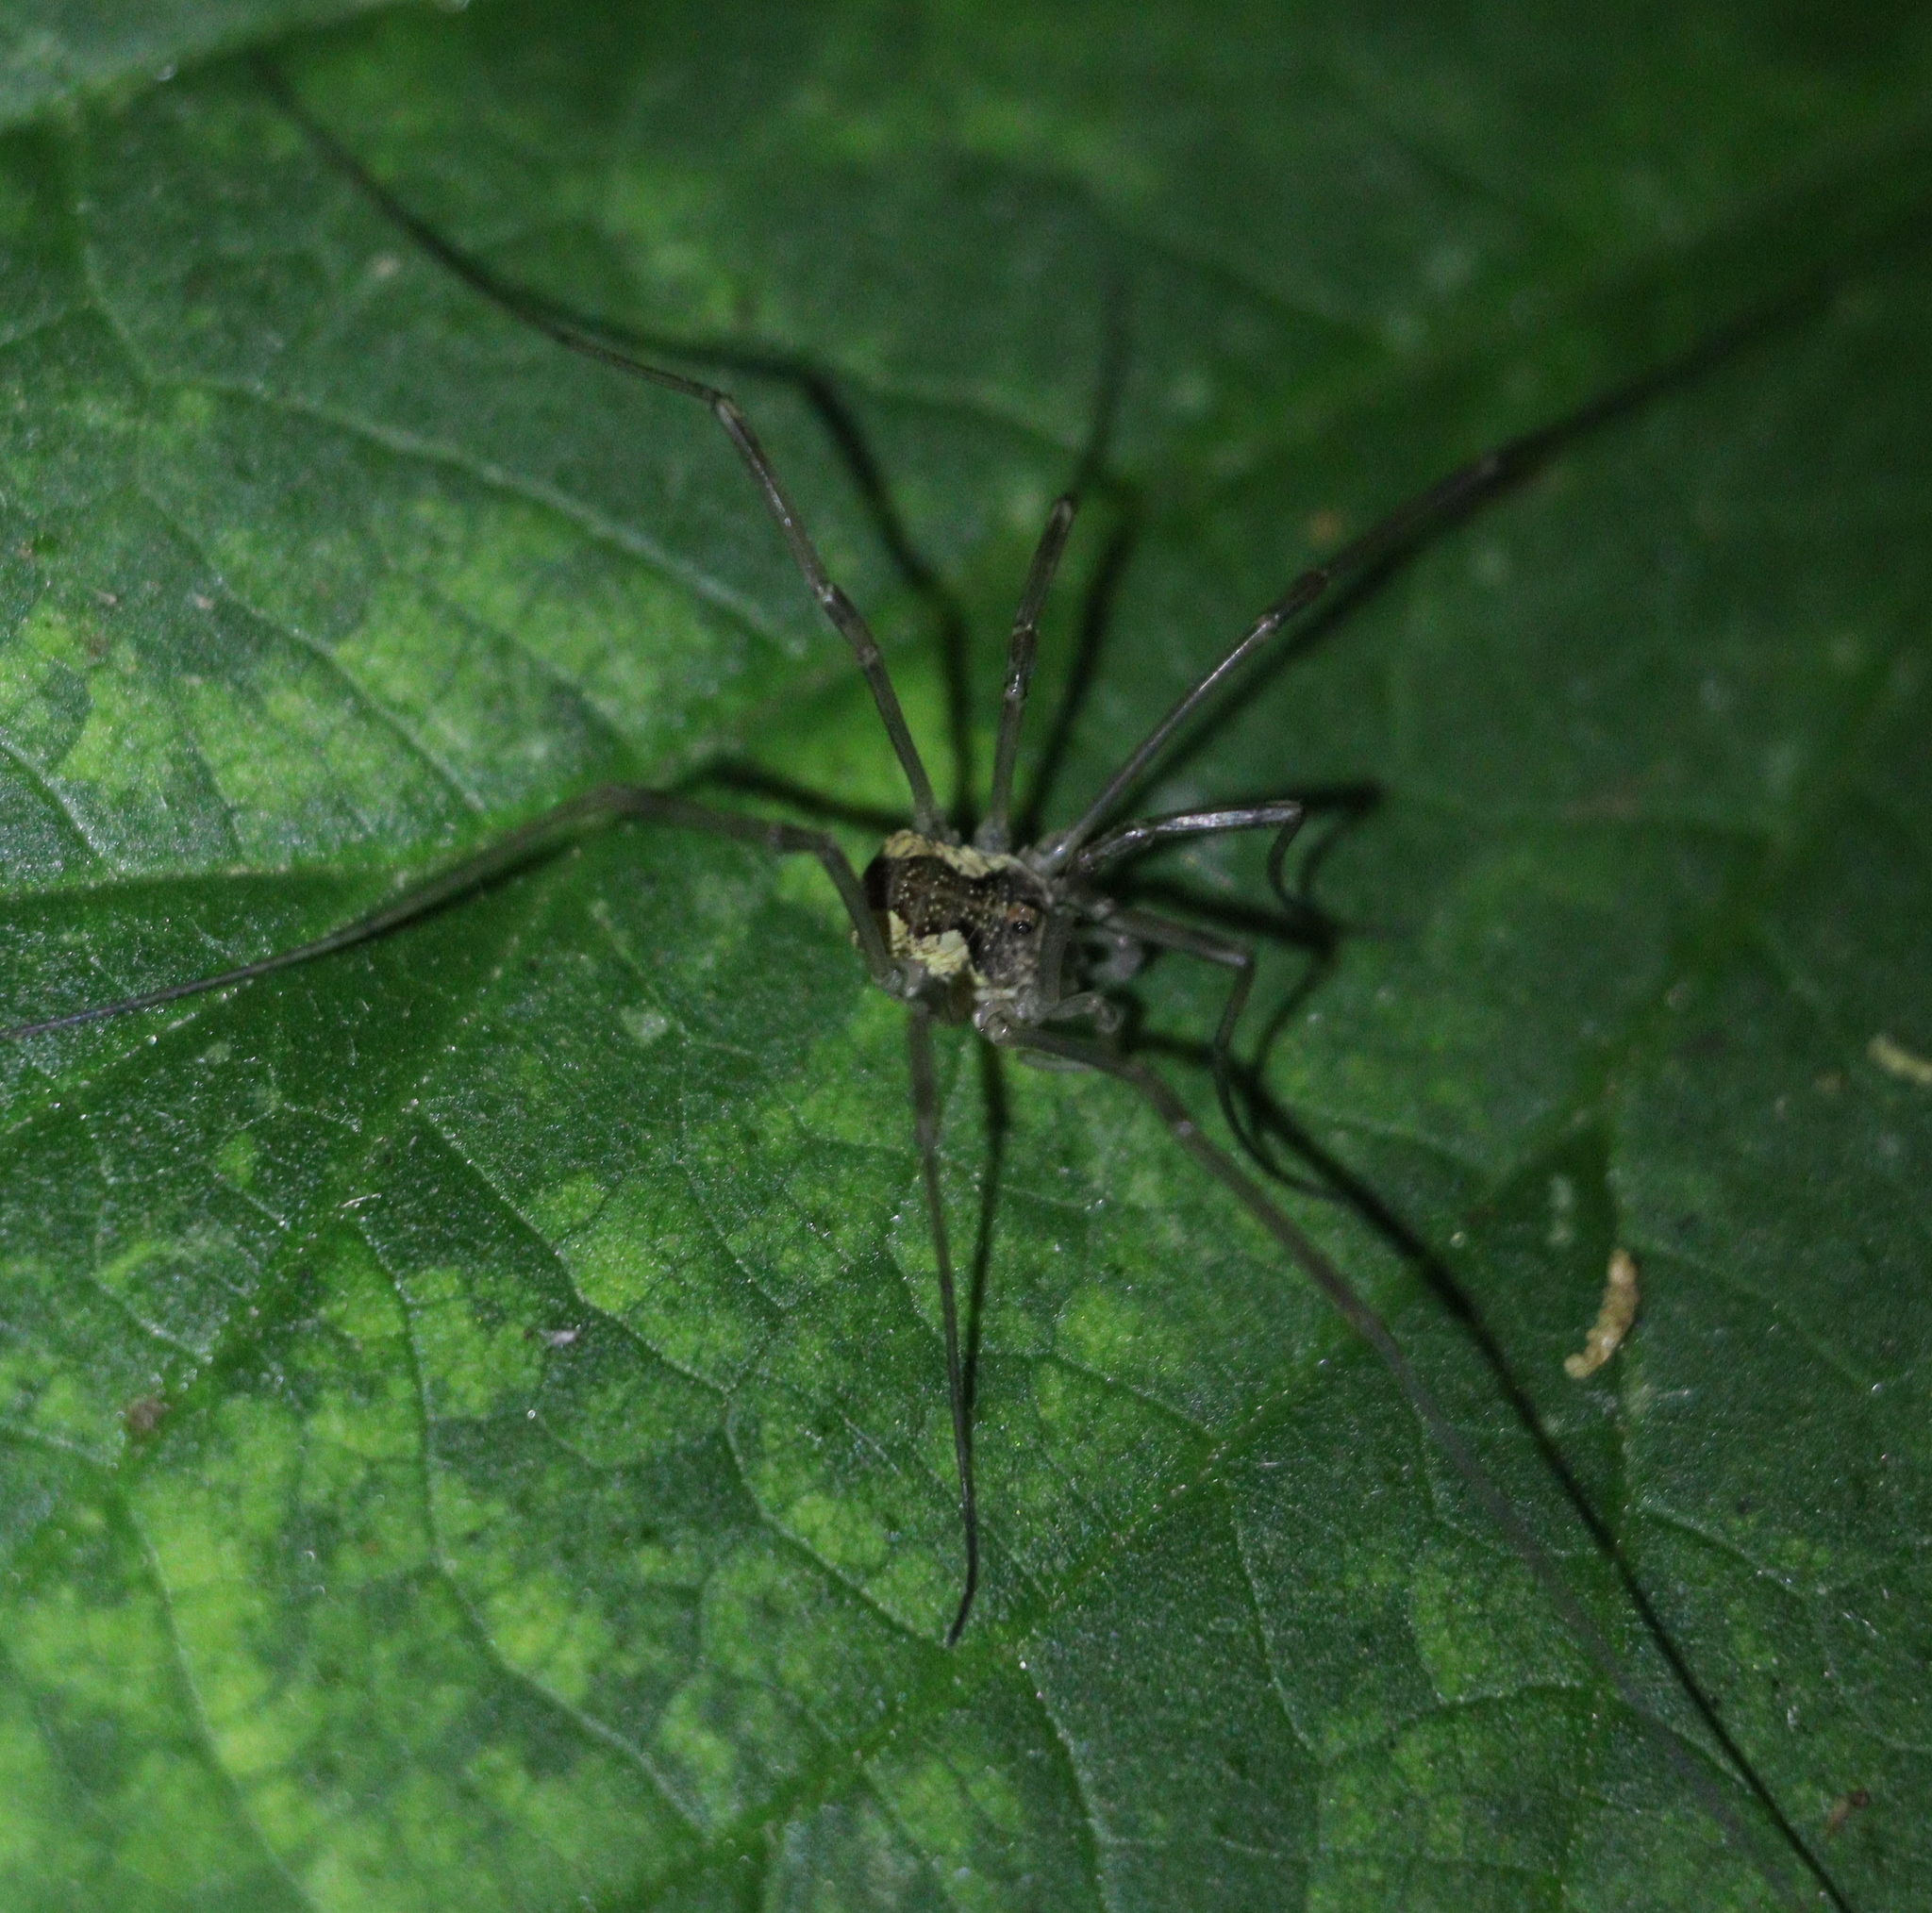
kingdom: Animalia
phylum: Arthropoda
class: Arachnida
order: Opiliones
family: Phalangiidae
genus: Mitopus
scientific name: Mitopus morio
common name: Saddleback harvestman
